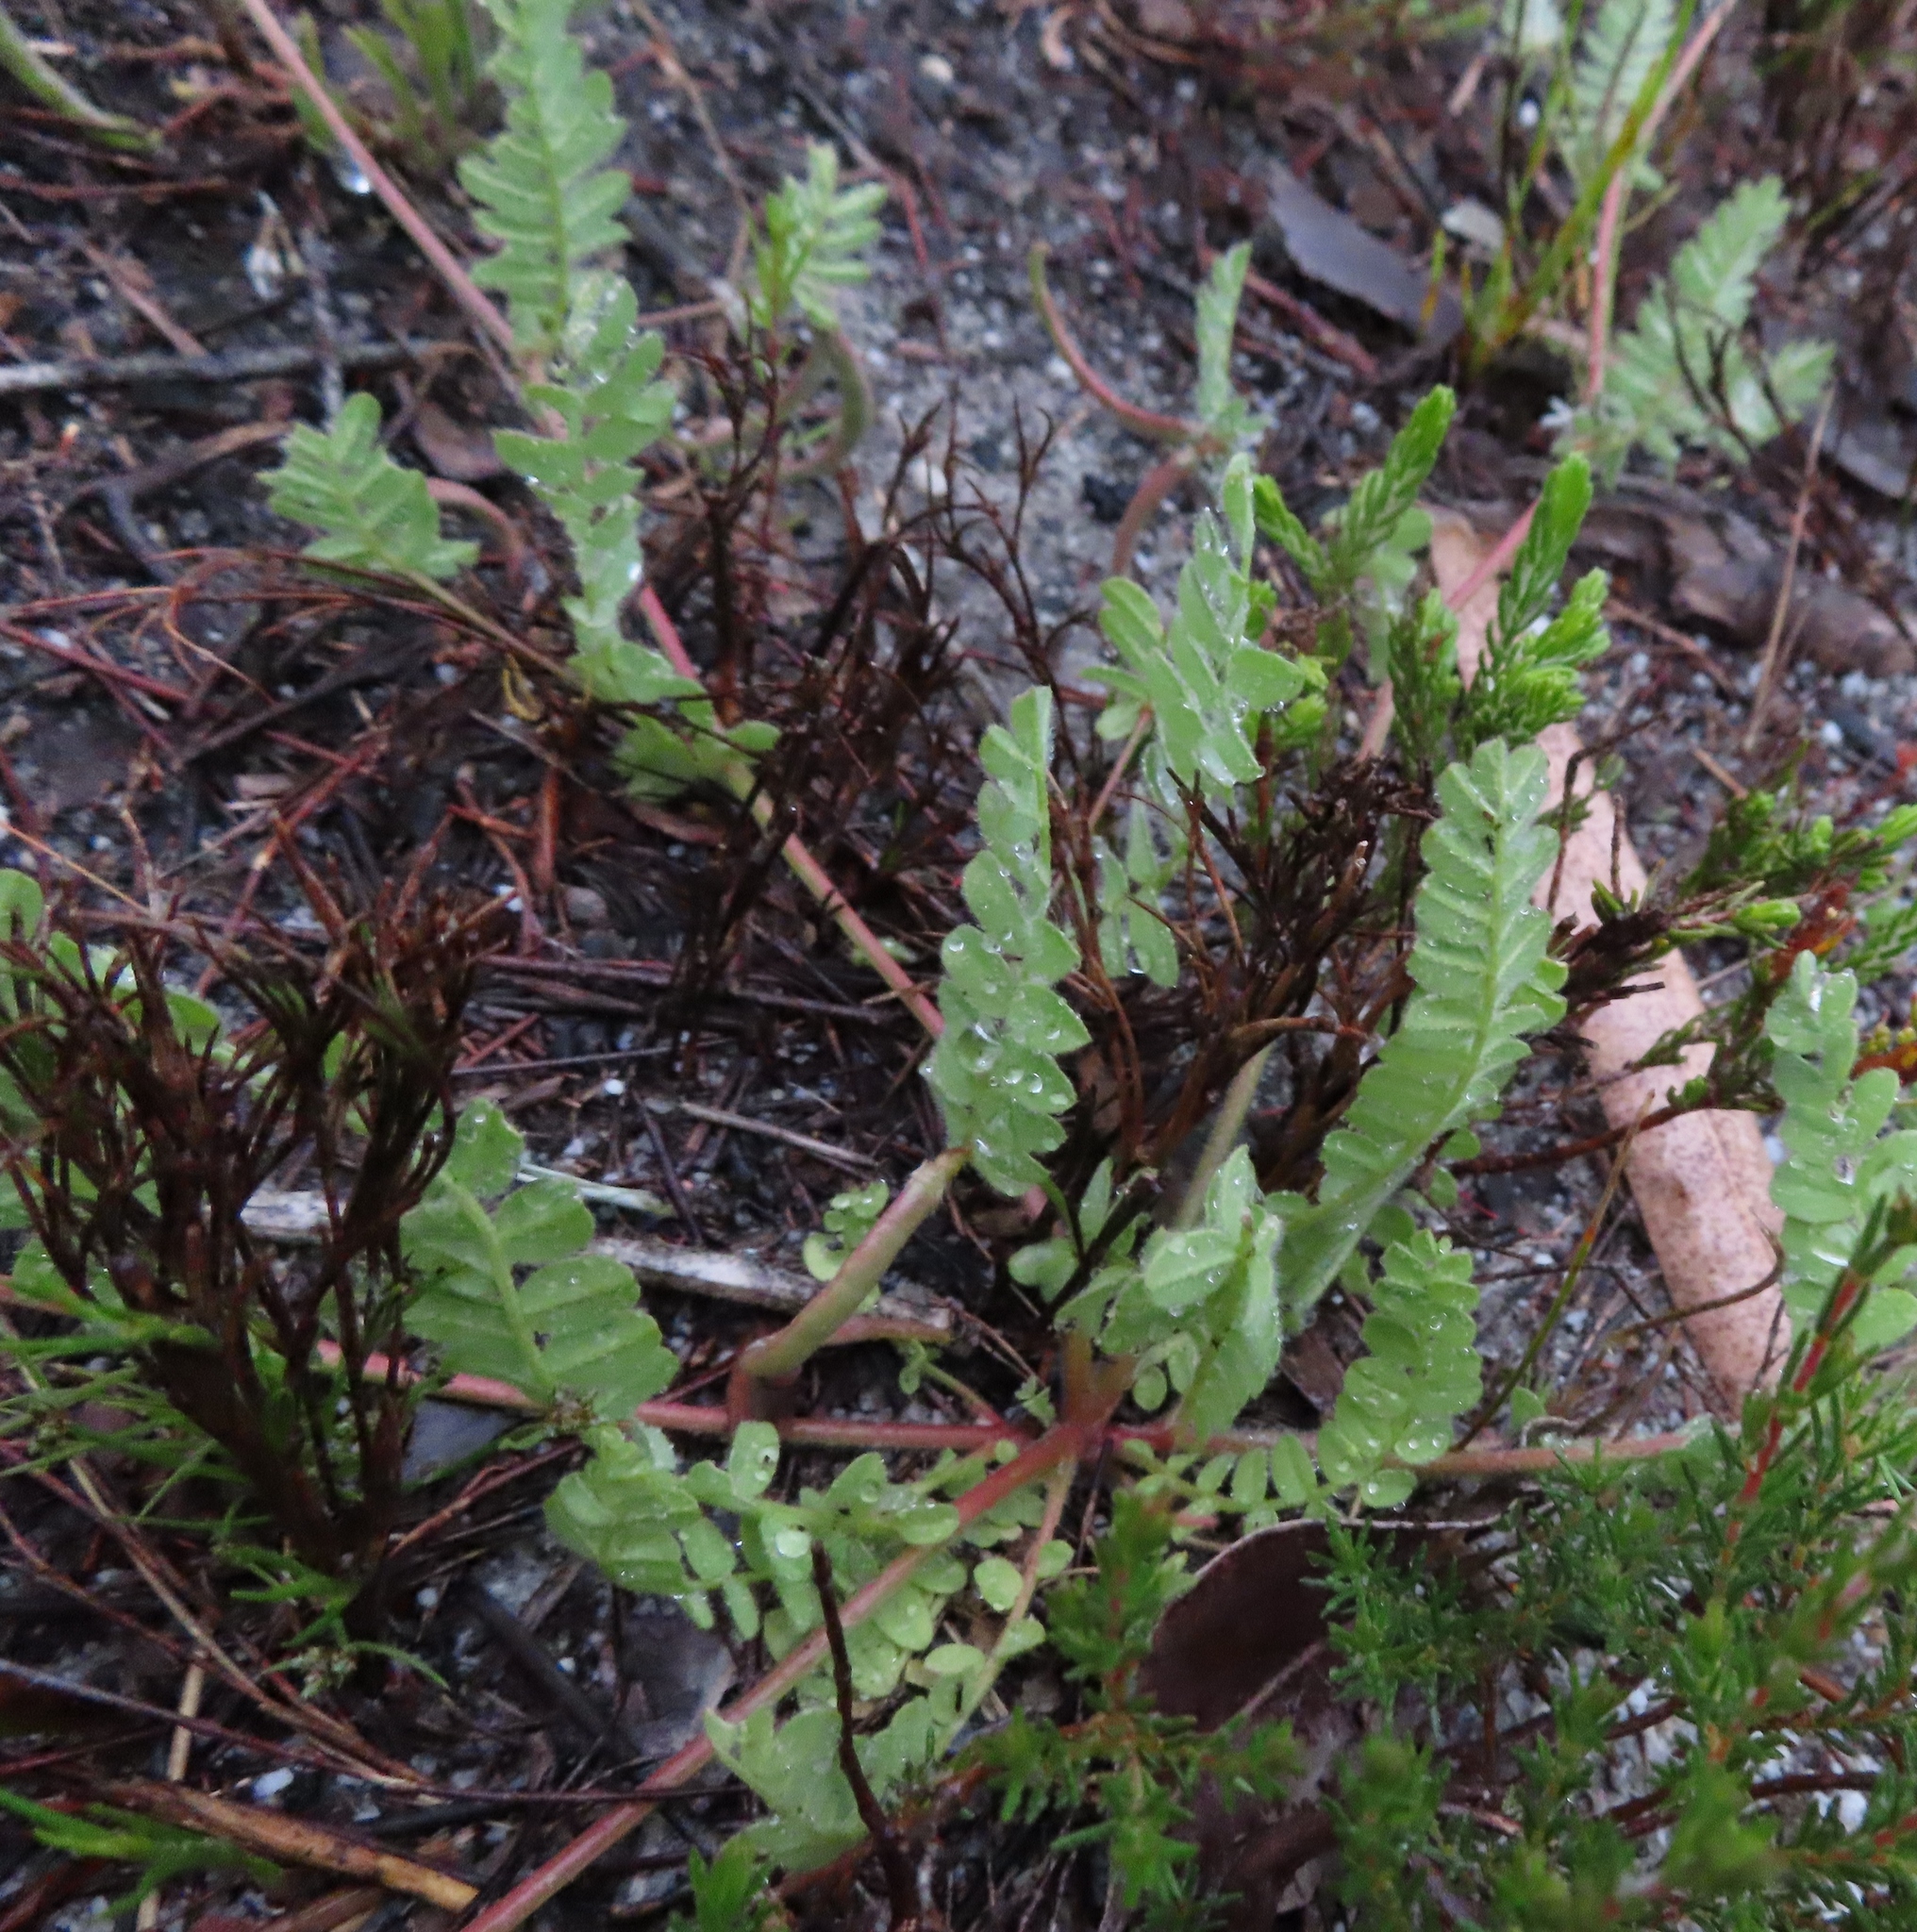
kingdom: Plantae
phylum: Tracheophyta
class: Magnoliopsida
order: Fabales
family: Fabaceae
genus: Ornithopus
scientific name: Ornithopus compressus
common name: Yellow serradella
